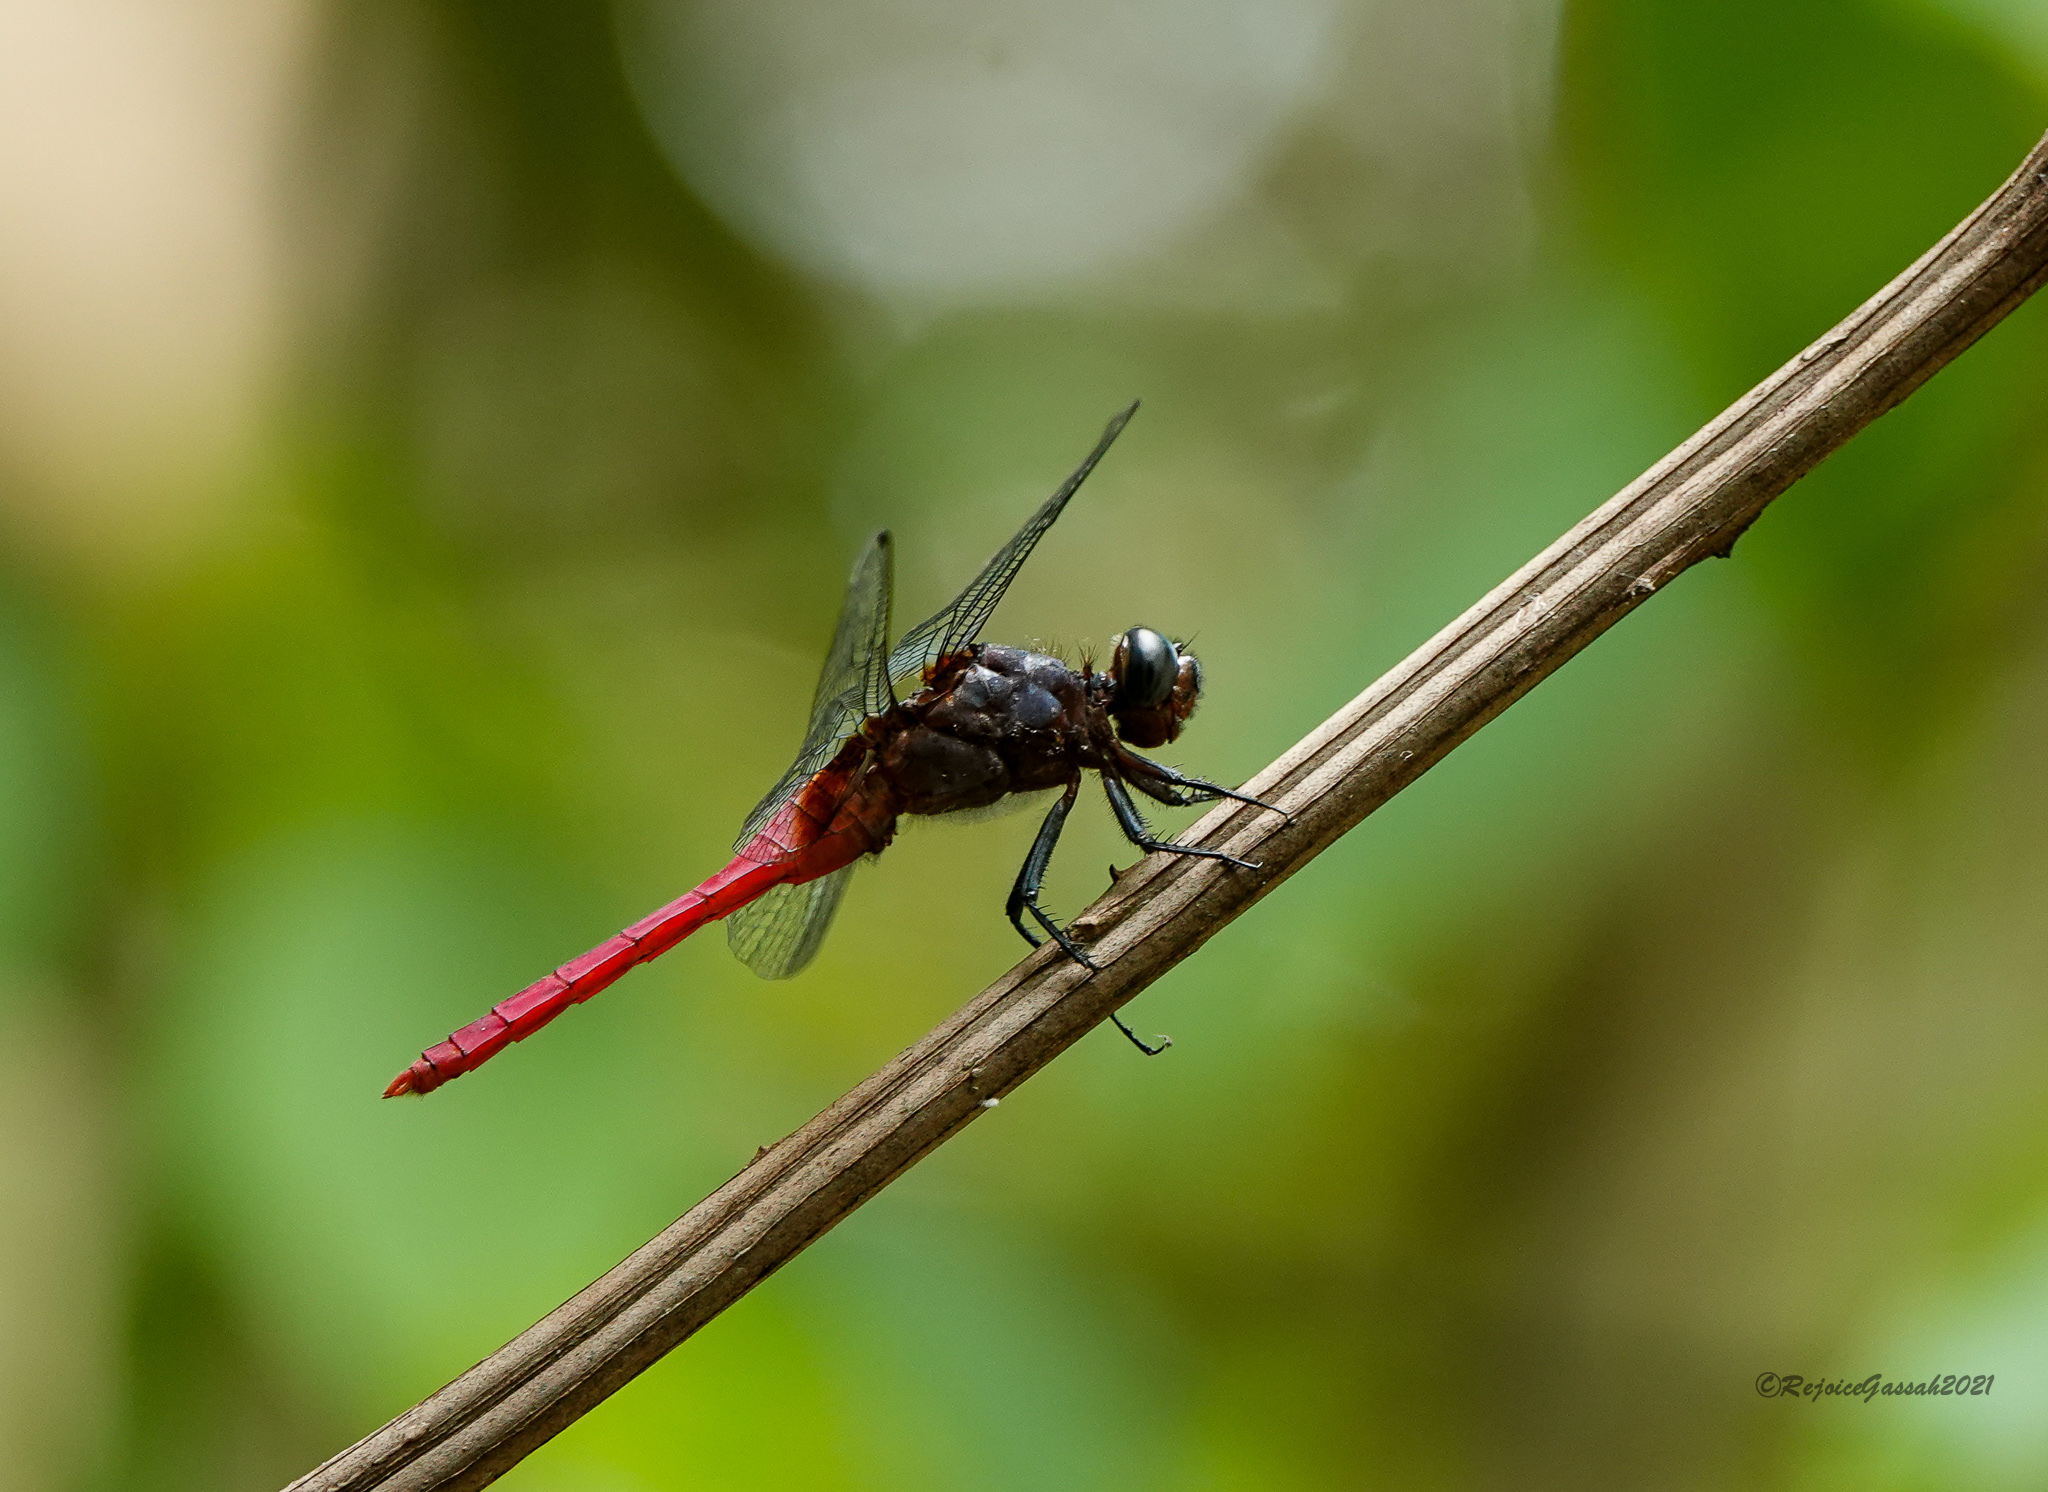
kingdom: Animalia
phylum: Arthropoda
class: Insecta
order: Odonata
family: Libellulidae
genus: Orthetrum
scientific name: Orthetrum pruinosum
